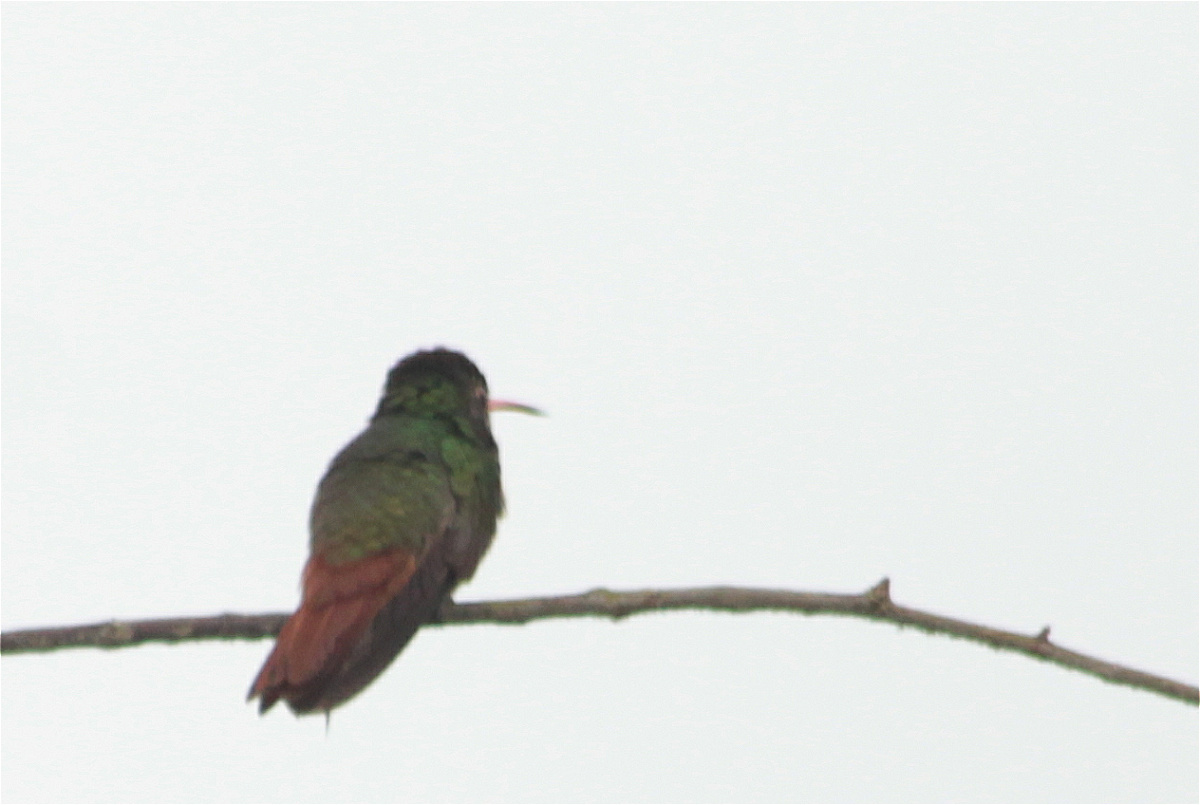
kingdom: Animalia
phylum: Chordata
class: Aves
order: Apodiformes
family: Trochilidae
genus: Amazilia
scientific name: Amazilia tzacatl
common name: Rufous-tailed hummingbird
